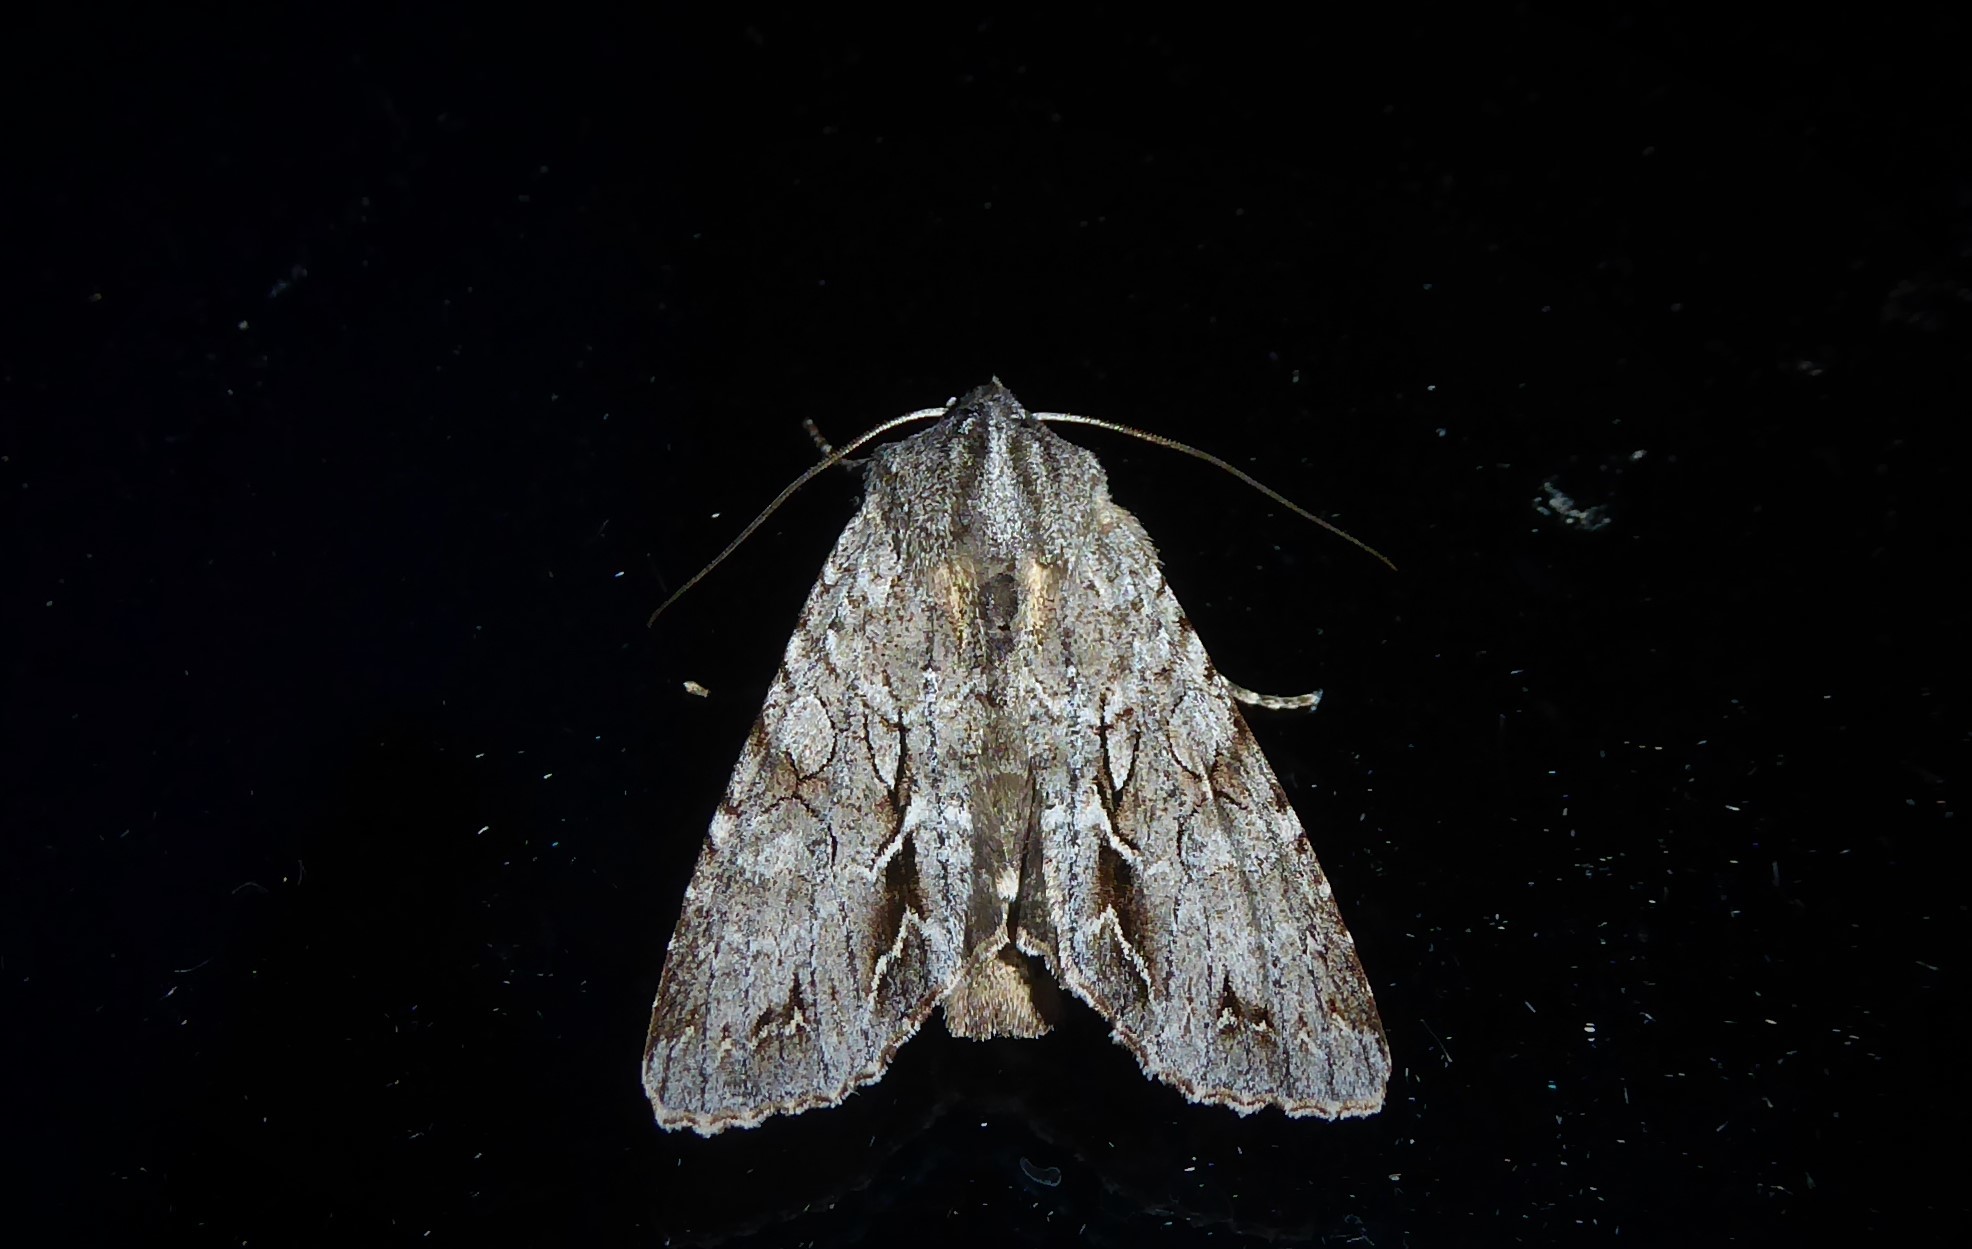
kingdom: Animalia
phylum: Arthropoda
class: Insecta
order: Lepidoptera
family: Noctuidae
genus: Ichneutica
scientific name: Ichneutica
